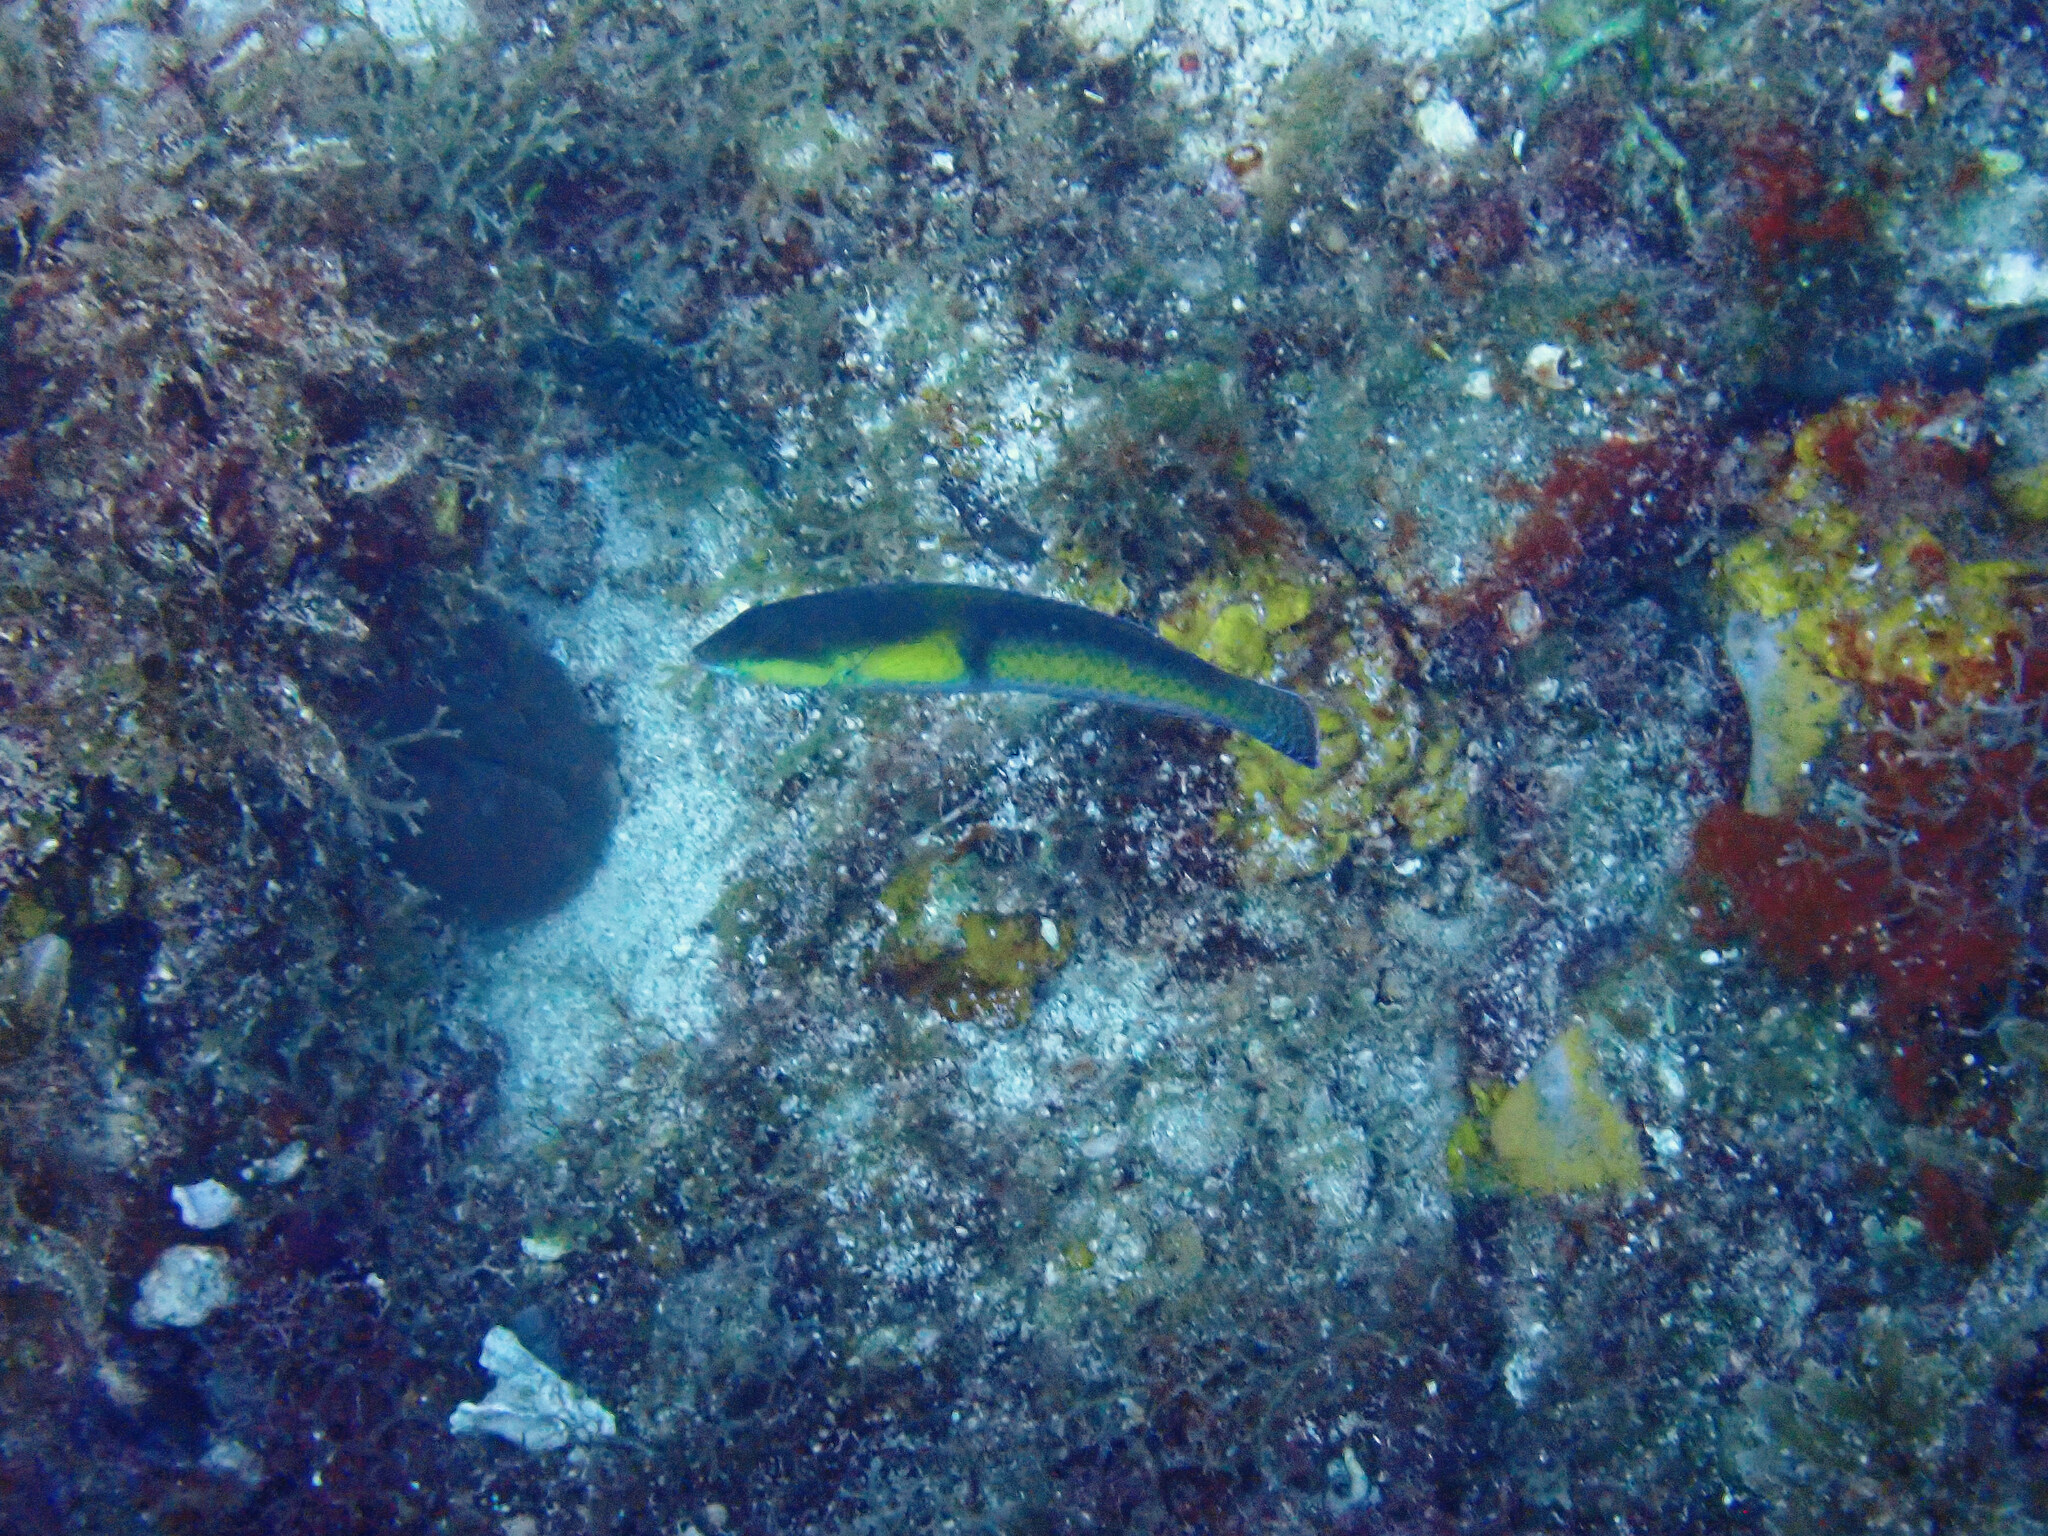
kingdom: Animalia
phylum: Chordata
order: Perciformes
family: Labridae
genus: Halichoeres
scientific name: Halichoeres garnoti
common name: Yellowhead wrasse
